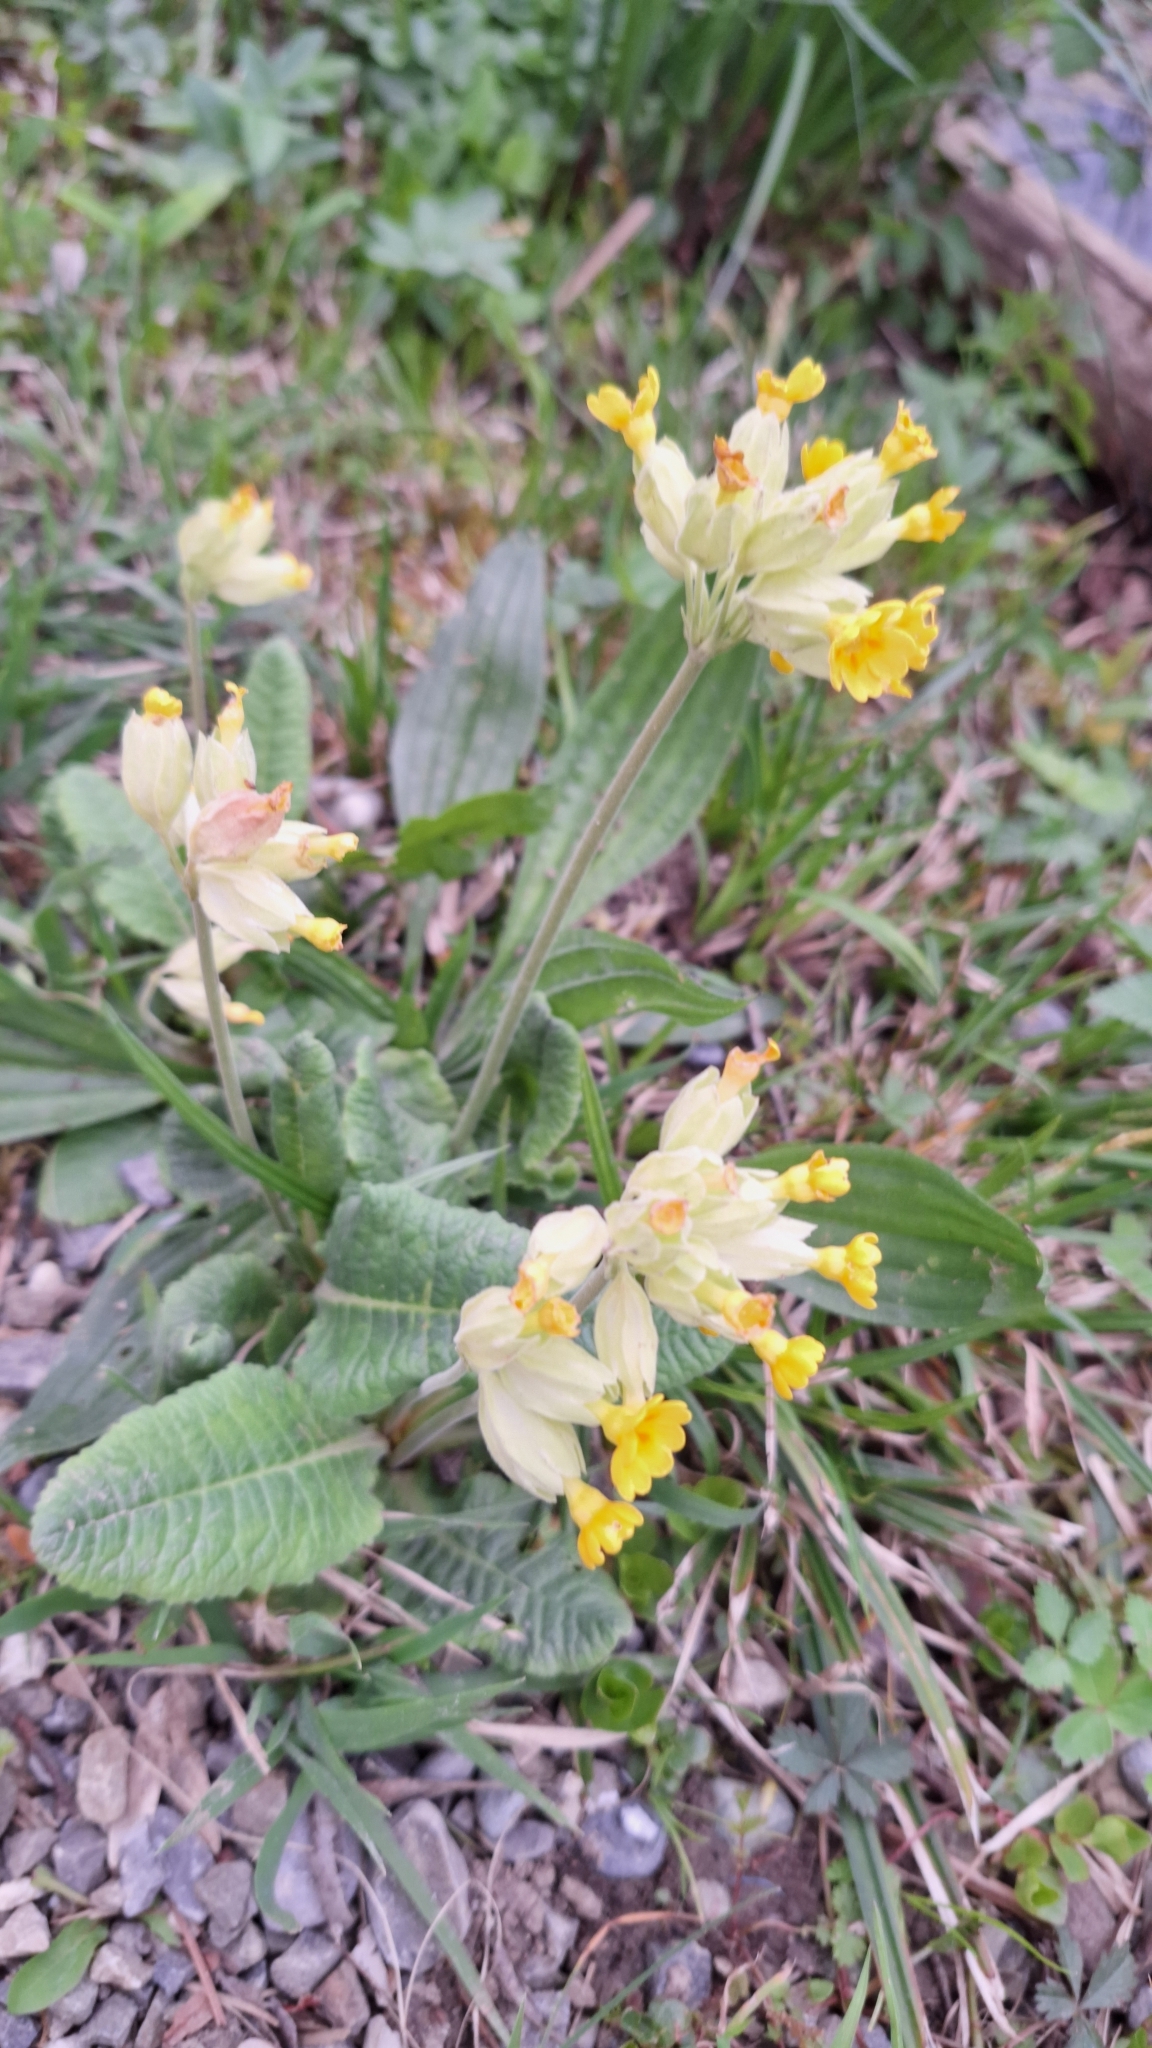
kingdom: Plantae
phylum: Tracheophyta
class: Magnoliopsida
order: Ericales
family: Primulaceae
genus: Primula
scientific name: Primula veris
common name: Cowslip
